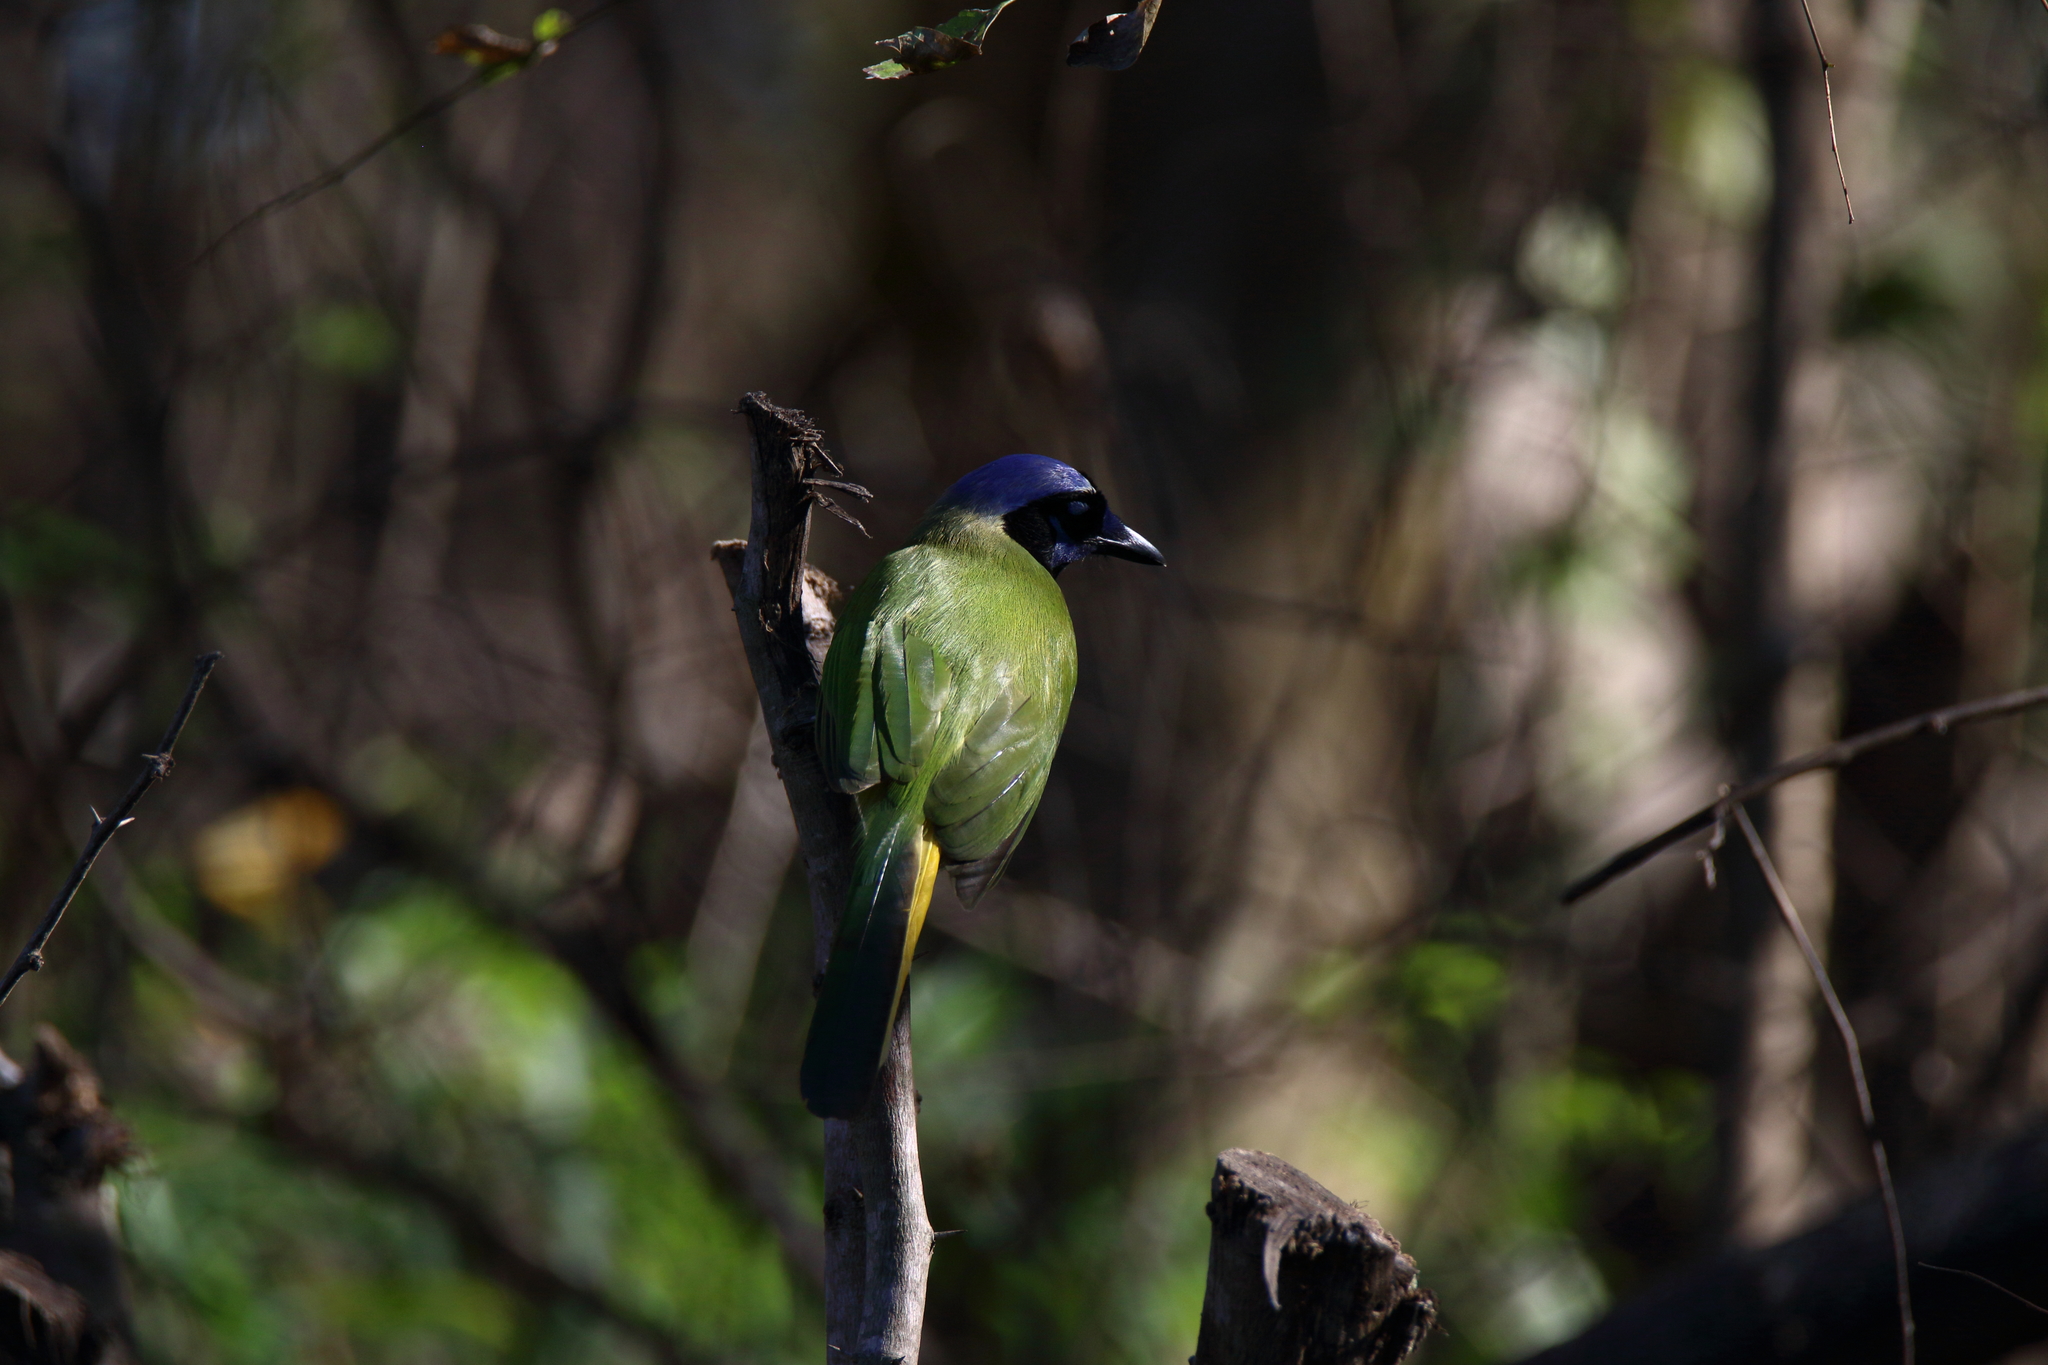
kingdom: Animalia
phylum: Chordata
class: Aves
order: Passeriformes
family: Corvidae
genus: Cyanocorax
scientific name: Cyanocorax yncas
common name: Green jay
